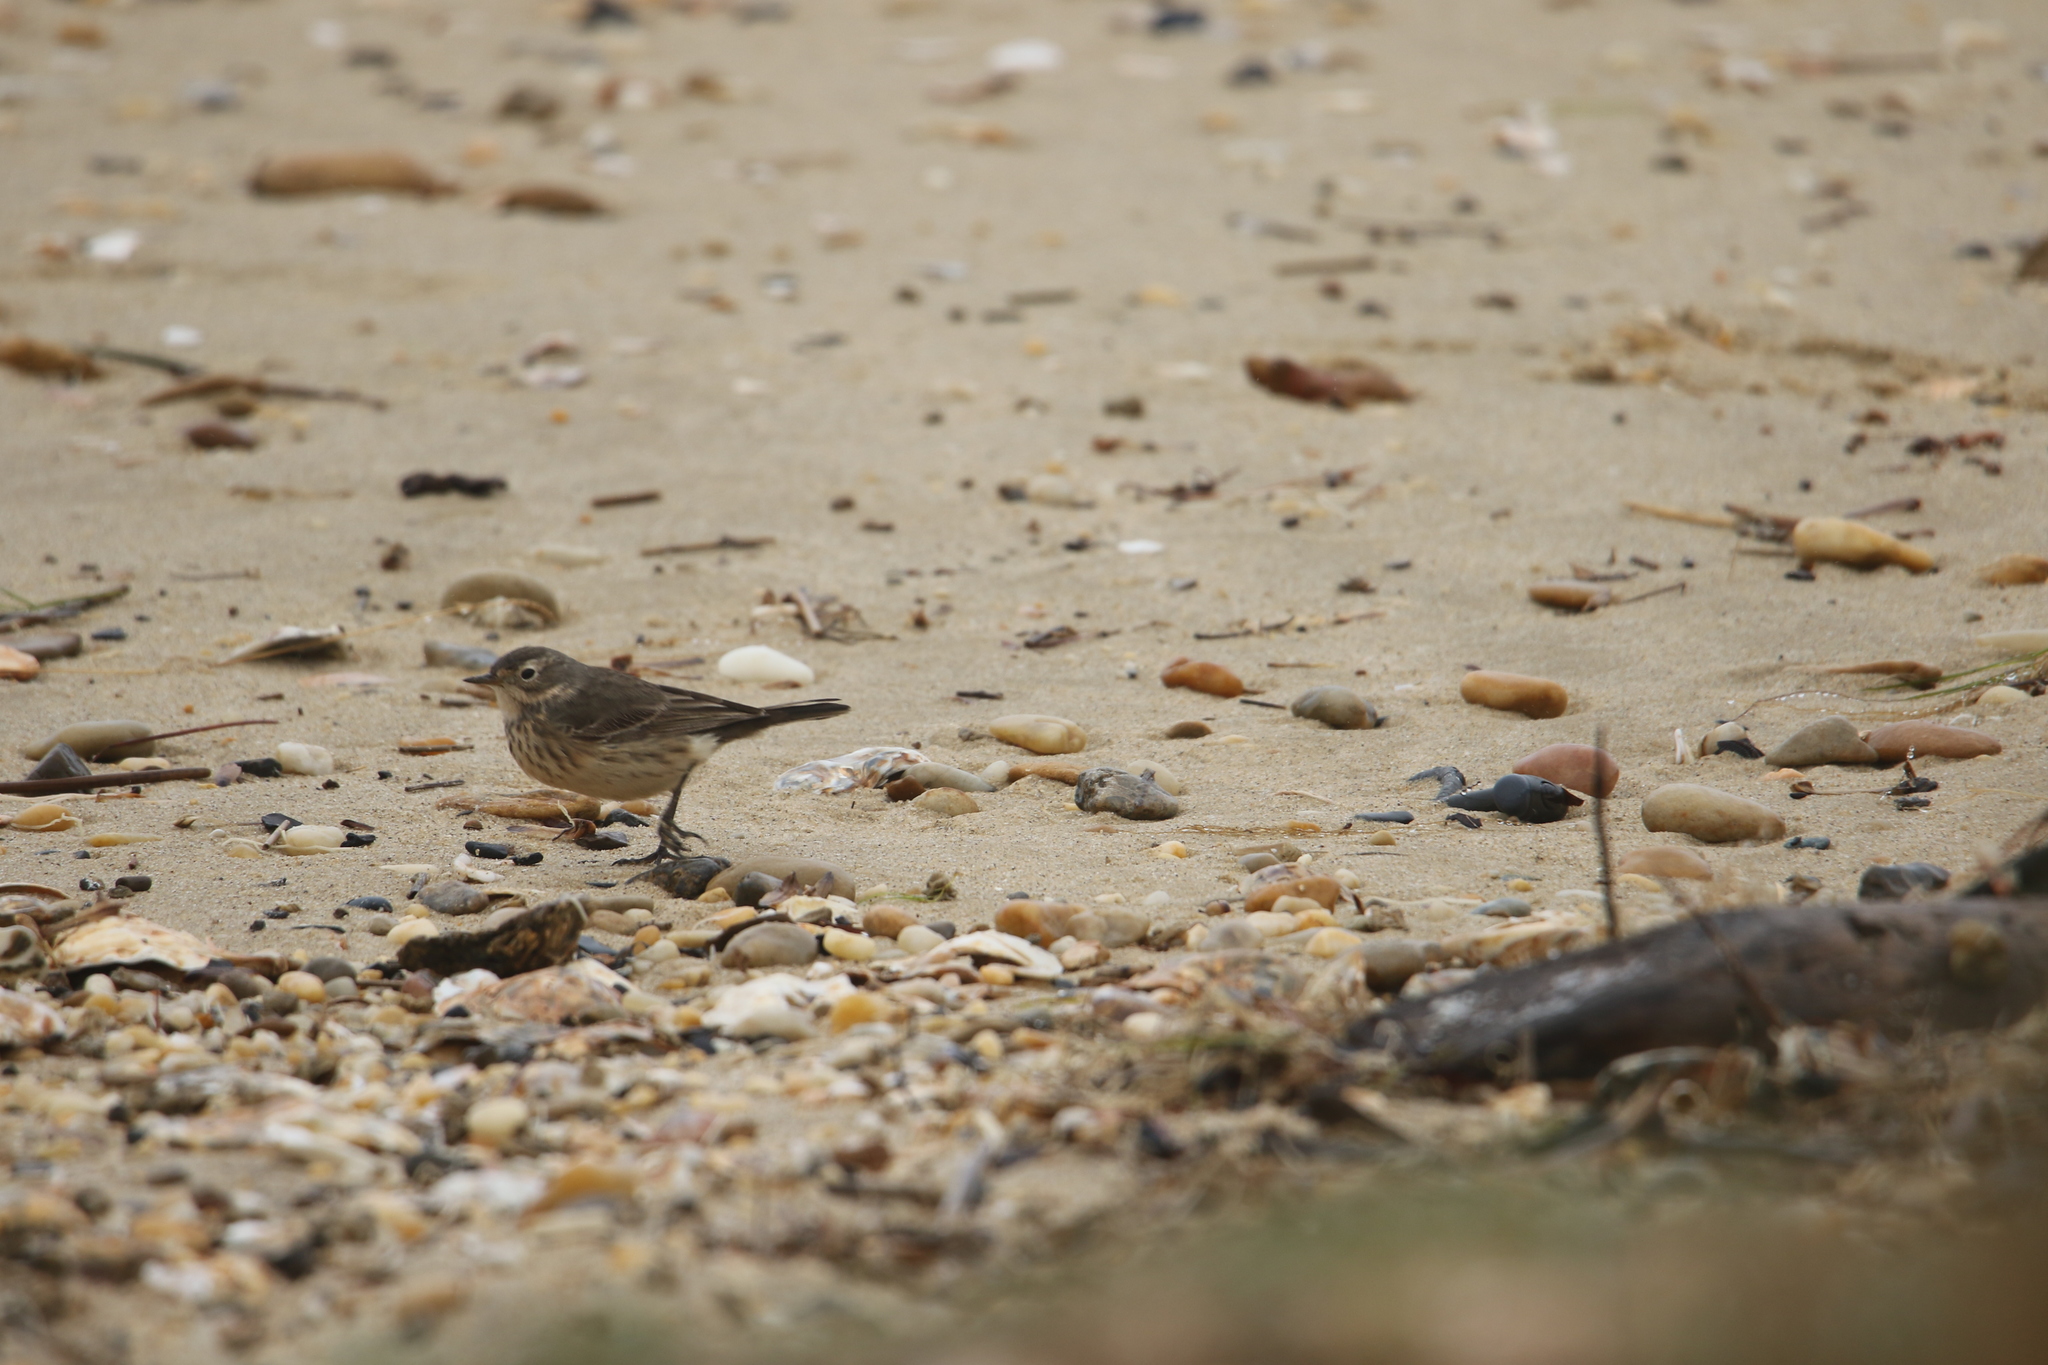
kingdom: Animalia
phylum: Chordata
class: Aves
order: Passeriformes
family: Motacillidae
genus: Anthus
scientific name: Anthus rubescens
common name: Buff-bellied pipit
